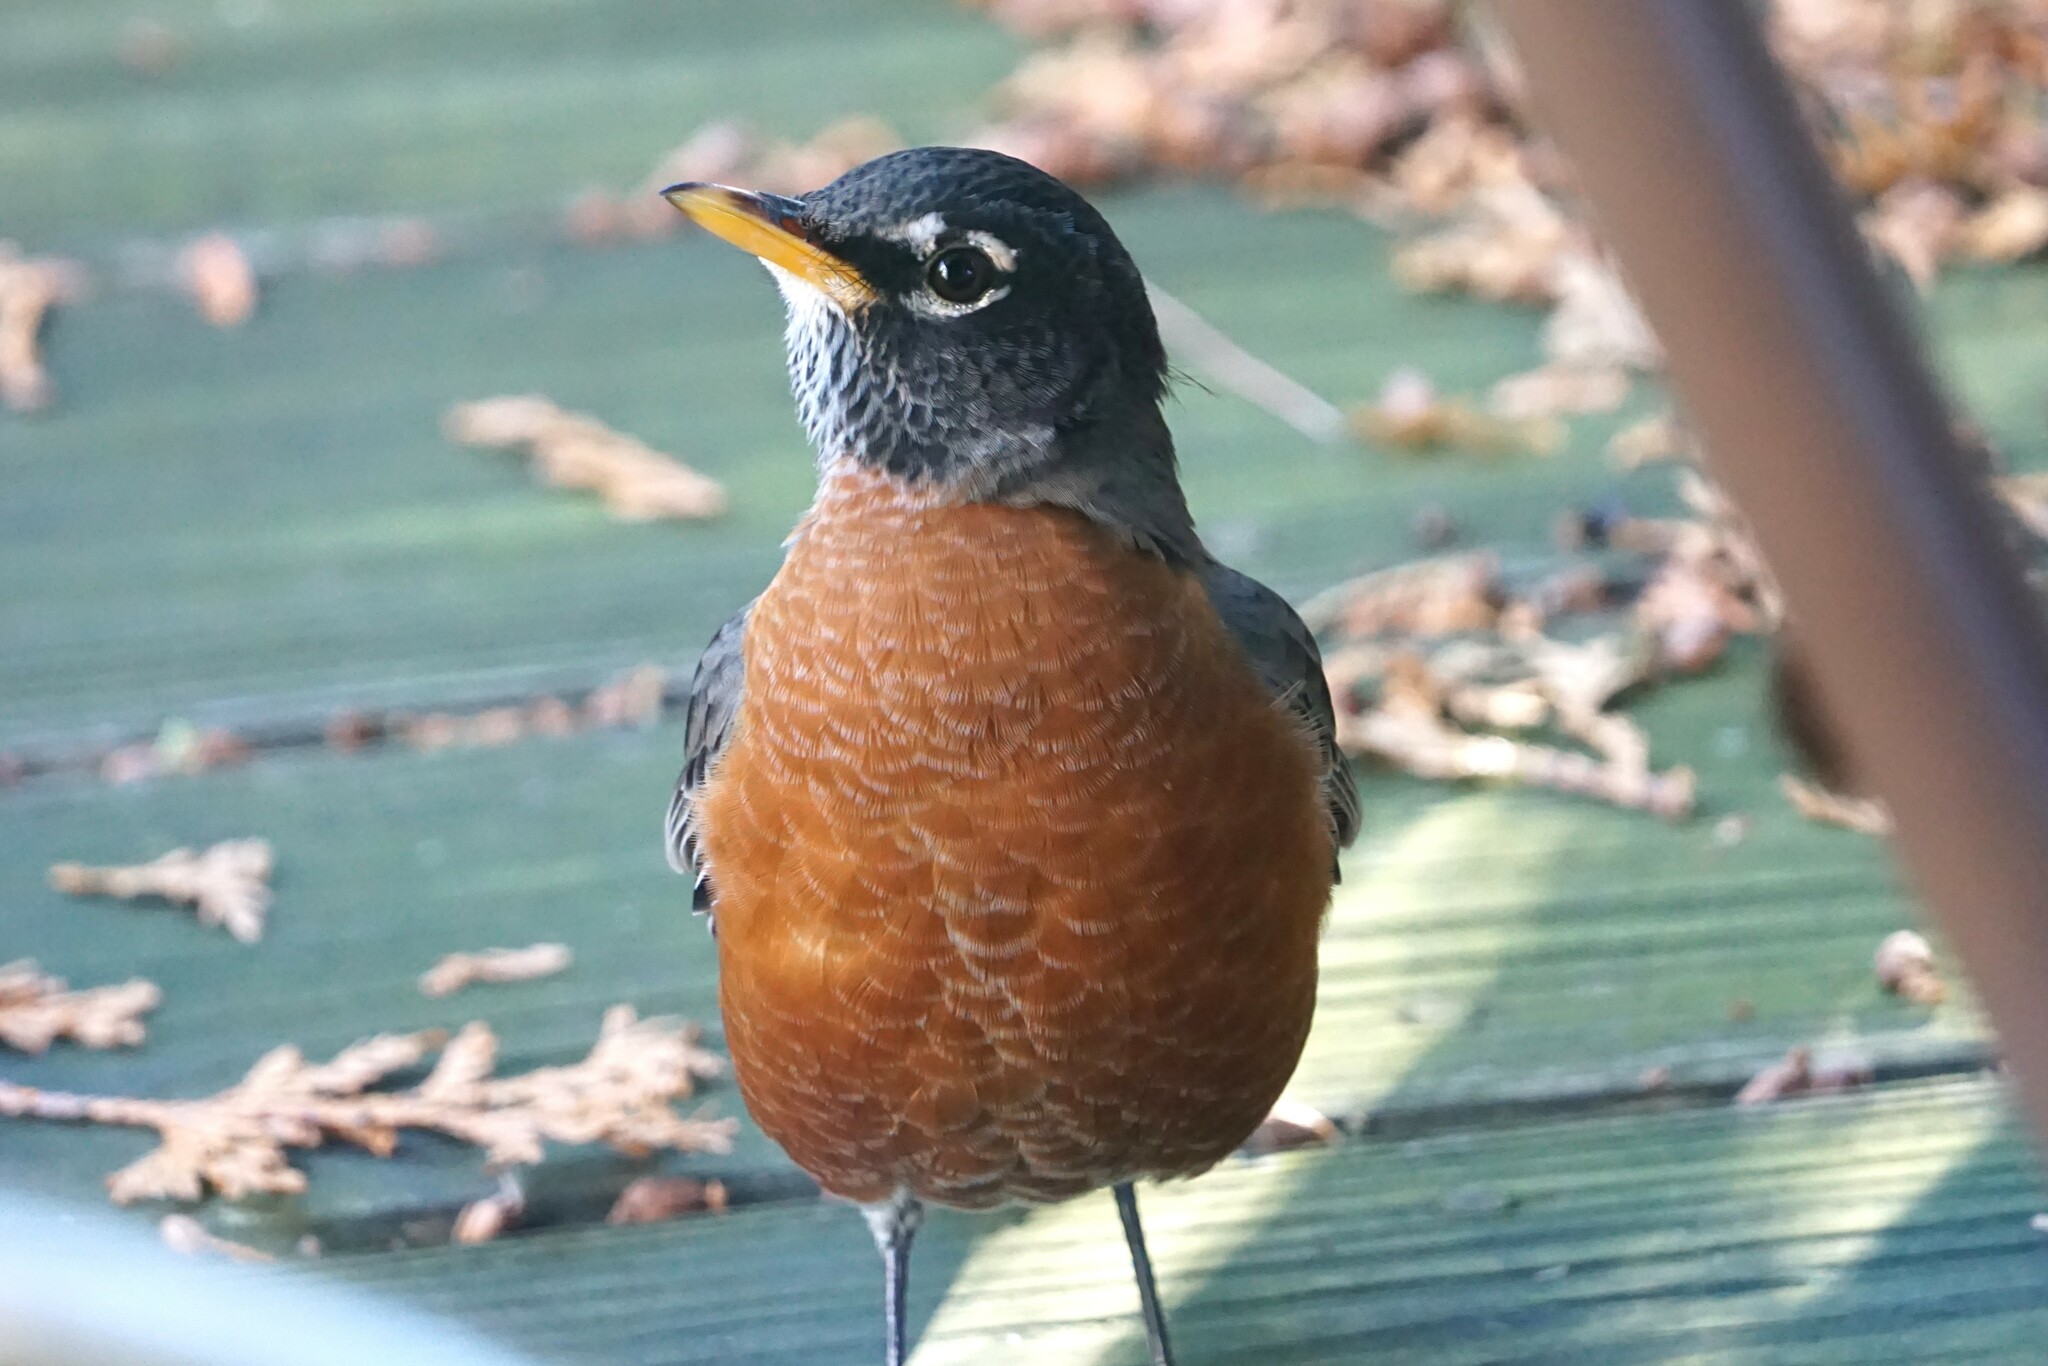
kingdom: Animalia
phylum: Chordata
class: Aves
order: Passeriformes
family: Turdidae
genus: Turdus
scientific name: Turdus migratorius
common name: American robin
